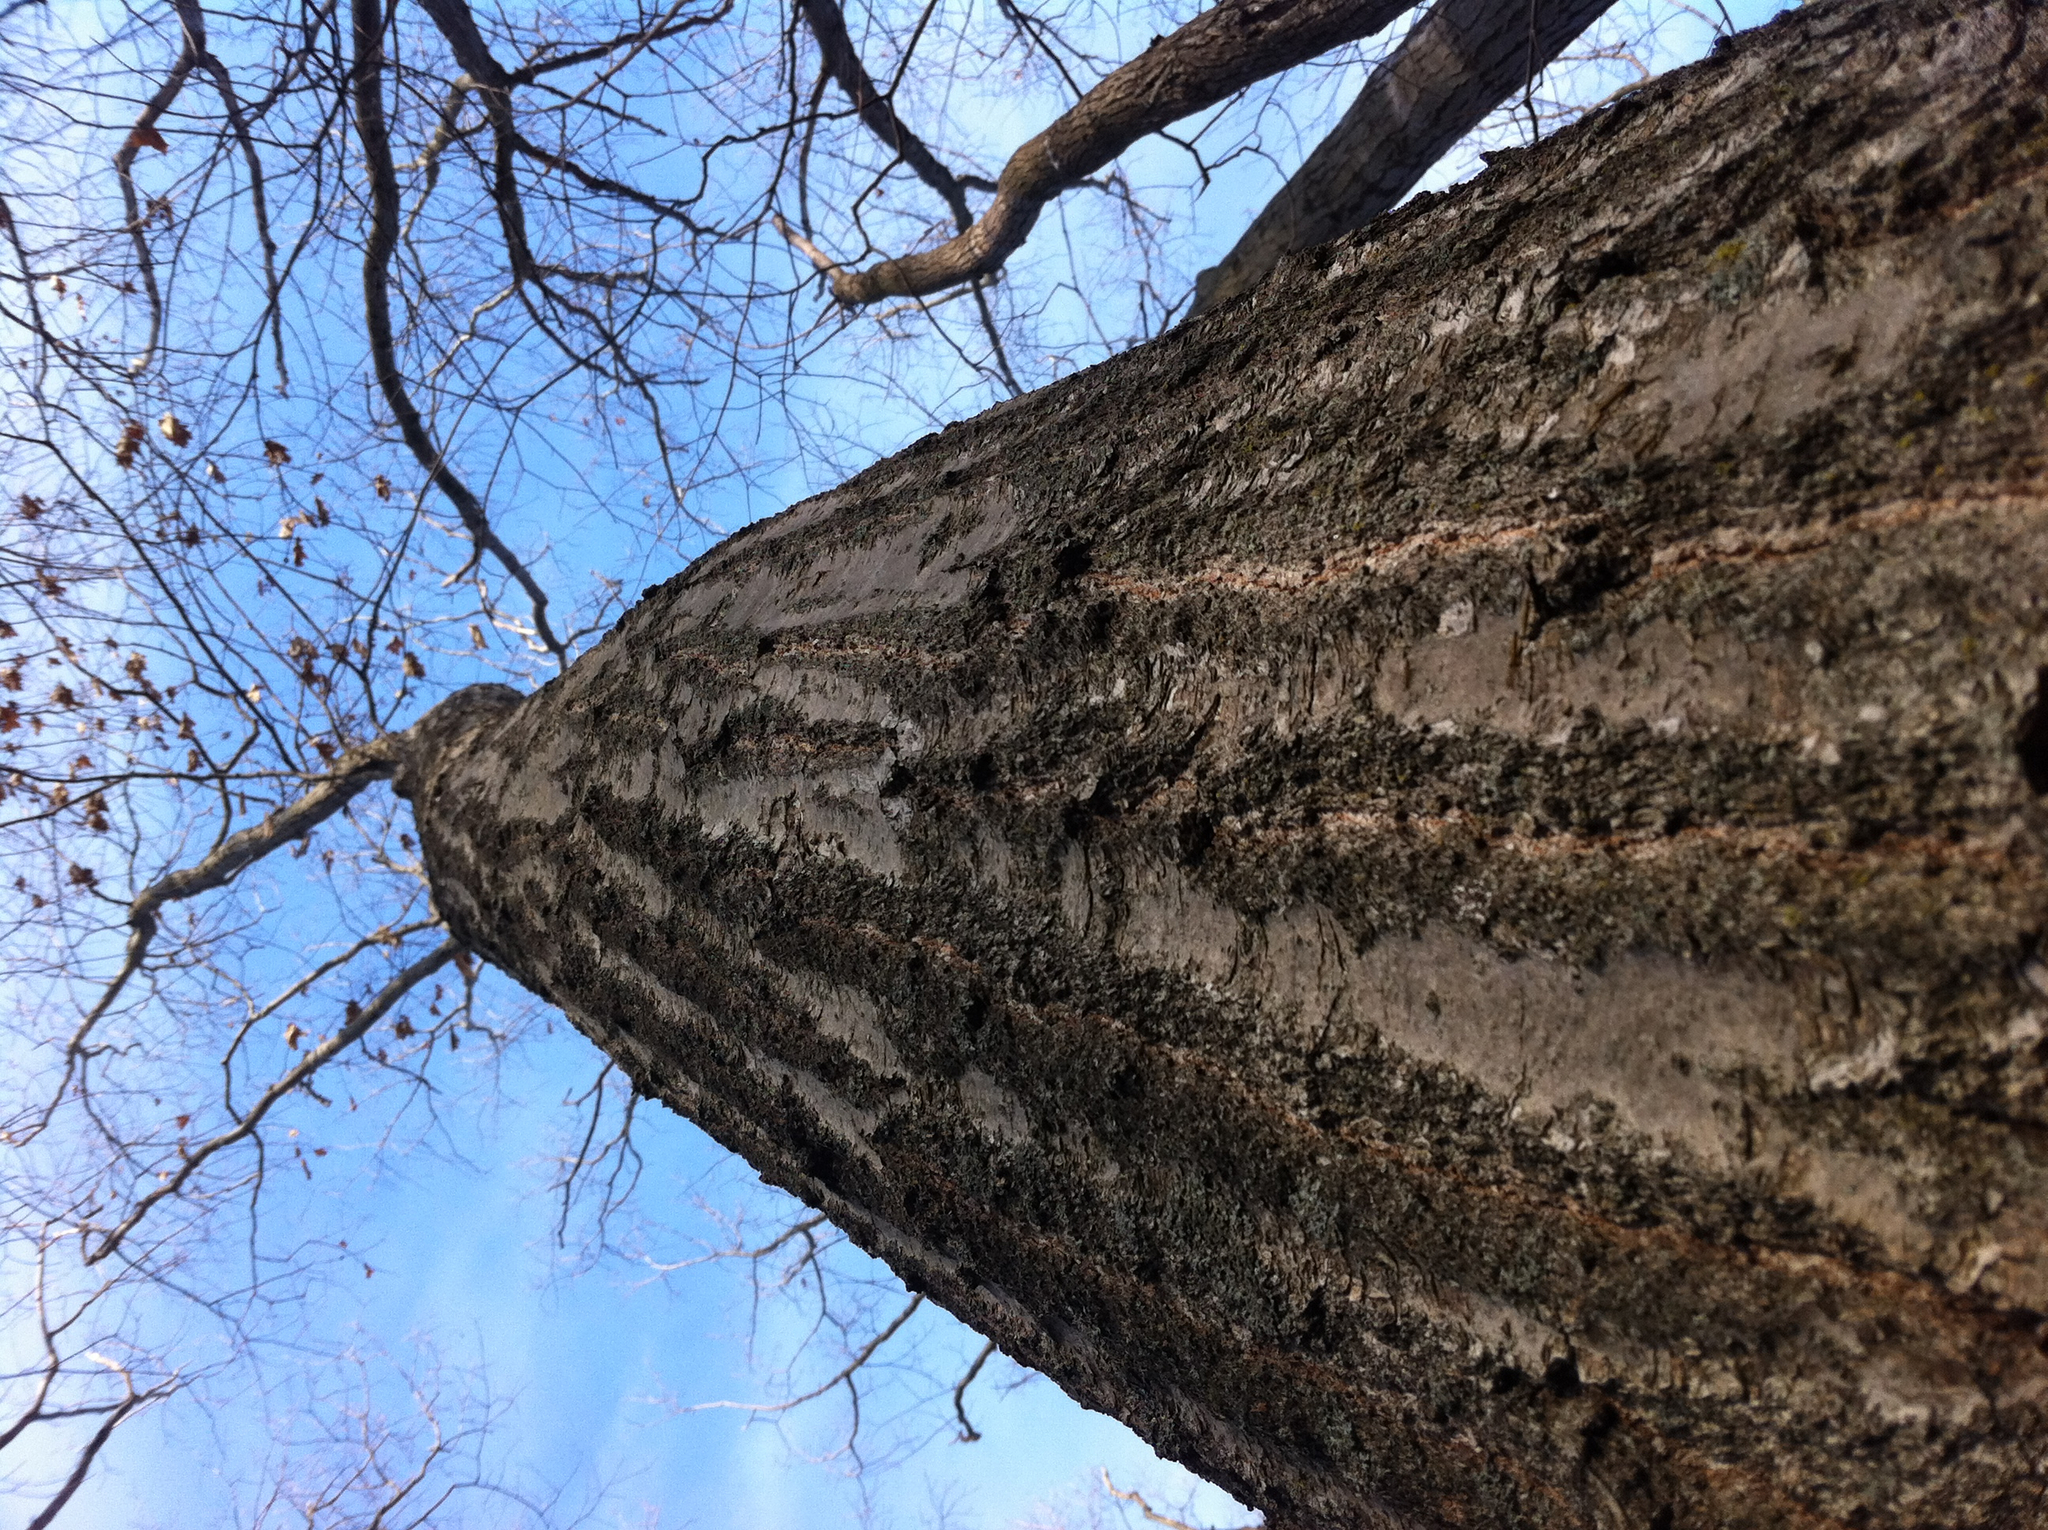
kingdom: Plantae
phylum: Tracheophyta
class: Magnoliopsida
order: Fagales
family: Fagaceae
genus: Quercus
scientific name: Quercus rubra
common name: Red oak
